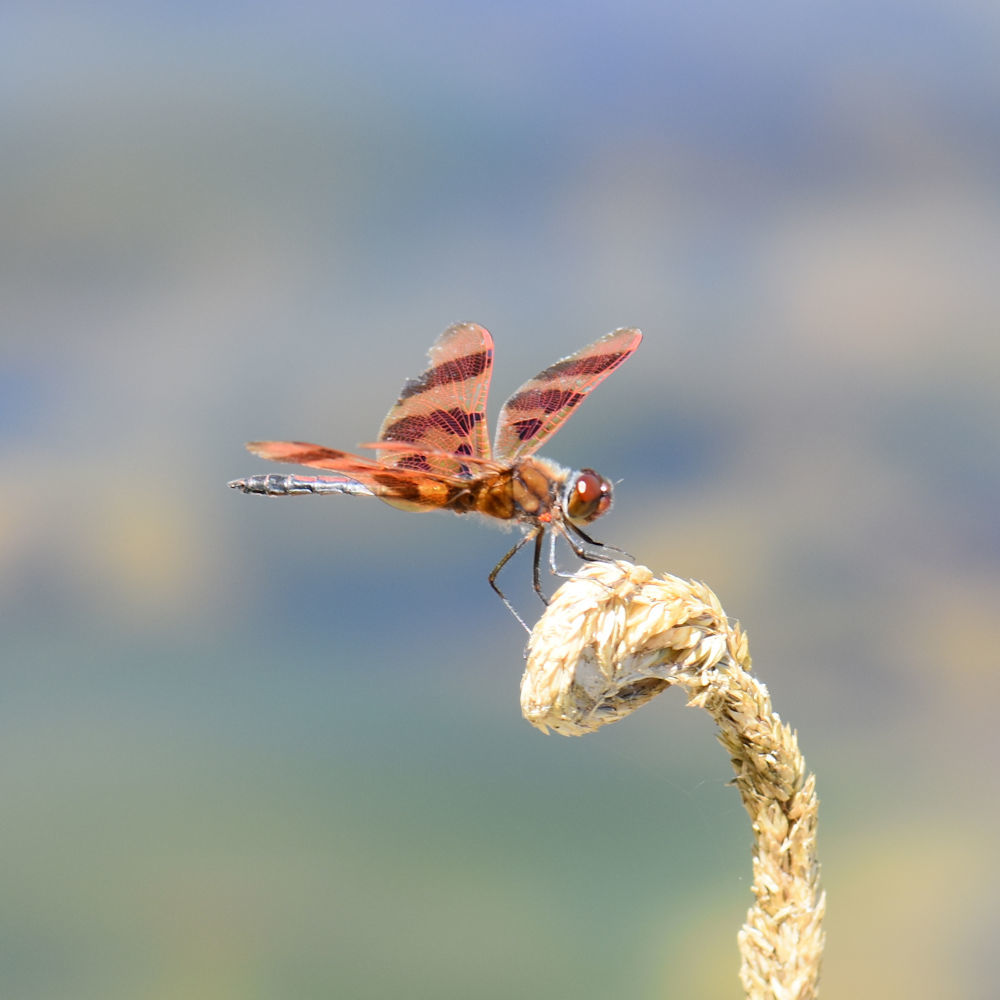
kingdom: Animalia
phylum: Arthropoda
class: Insecta
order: Odonata
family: Libellulidae
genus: Celithemis
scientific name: Celithemis eponina
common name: Halloween pennant
